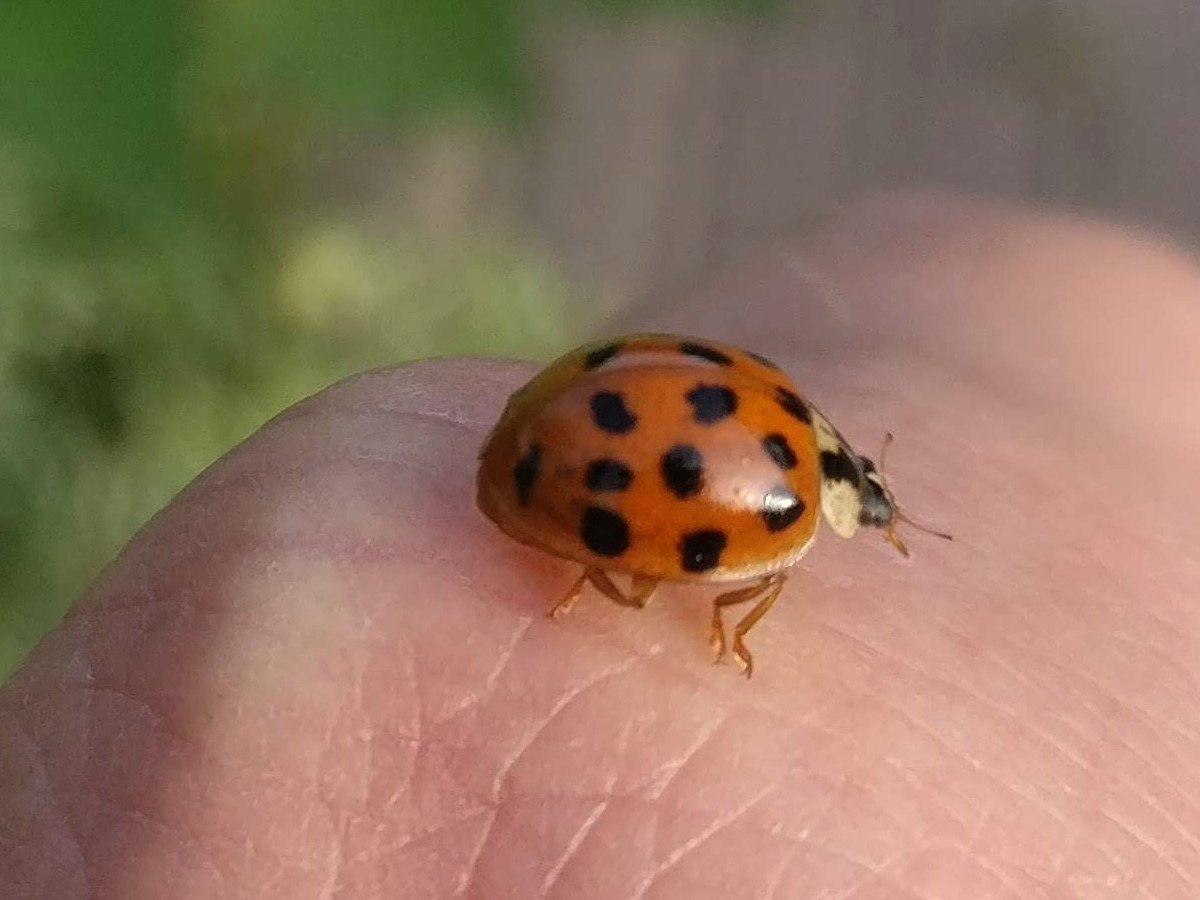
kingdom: Animalia
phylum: Arthropoda
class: Insecta
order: Coleoptera
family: Coccinellidae
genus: Harmonia
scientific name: Harmonia axyridis
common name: Harlequin ladybird
